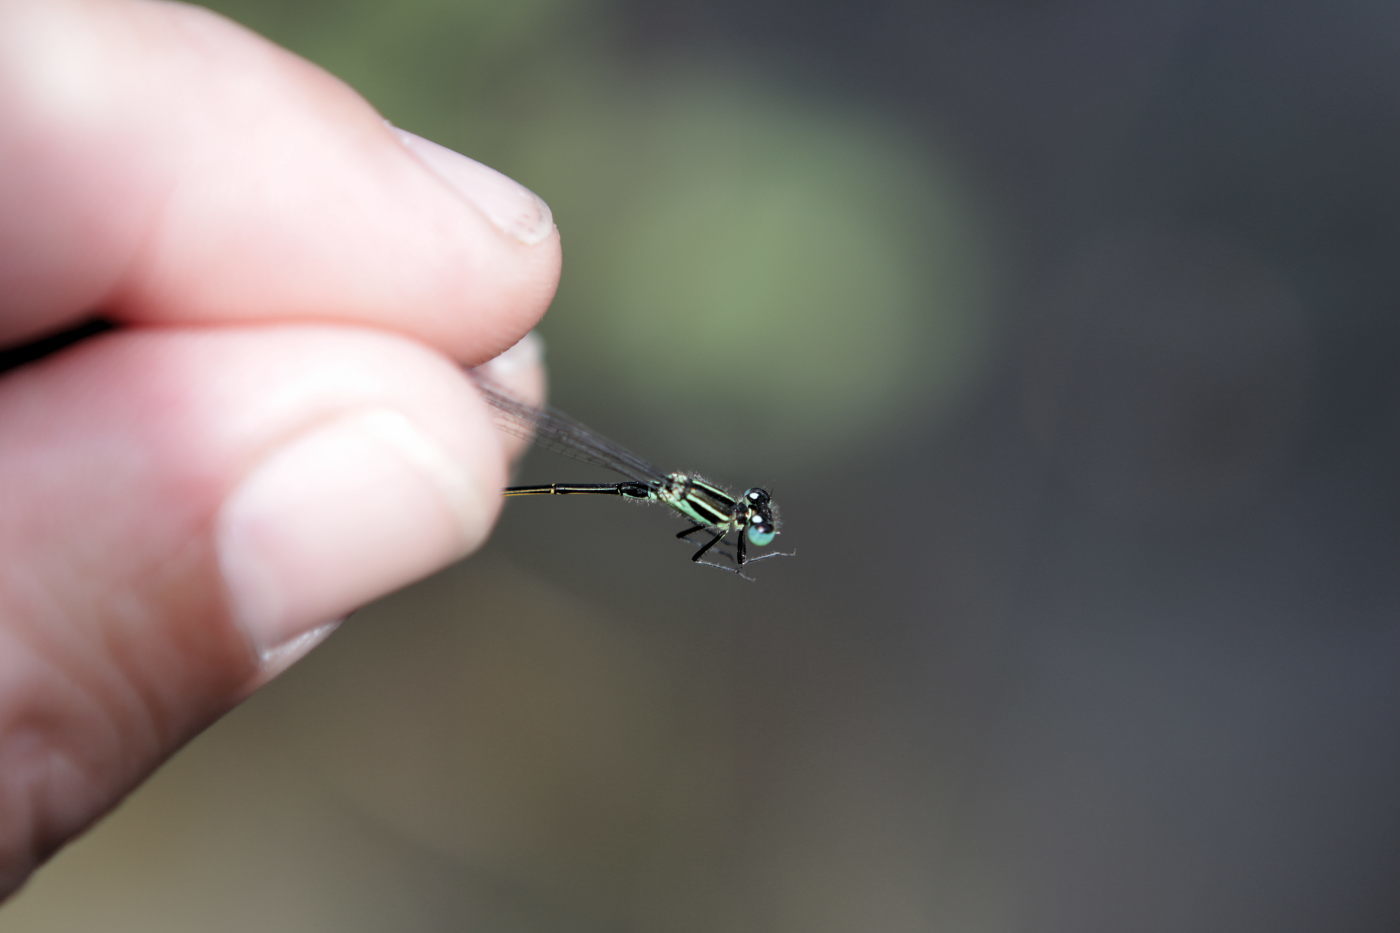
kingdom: Animalia
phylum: Arthropoda
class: Insecta
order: Odonata
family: Coenagrionidae
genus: Ischnura
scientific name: Ischnura elegans
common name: Blue-tailed damselfly
